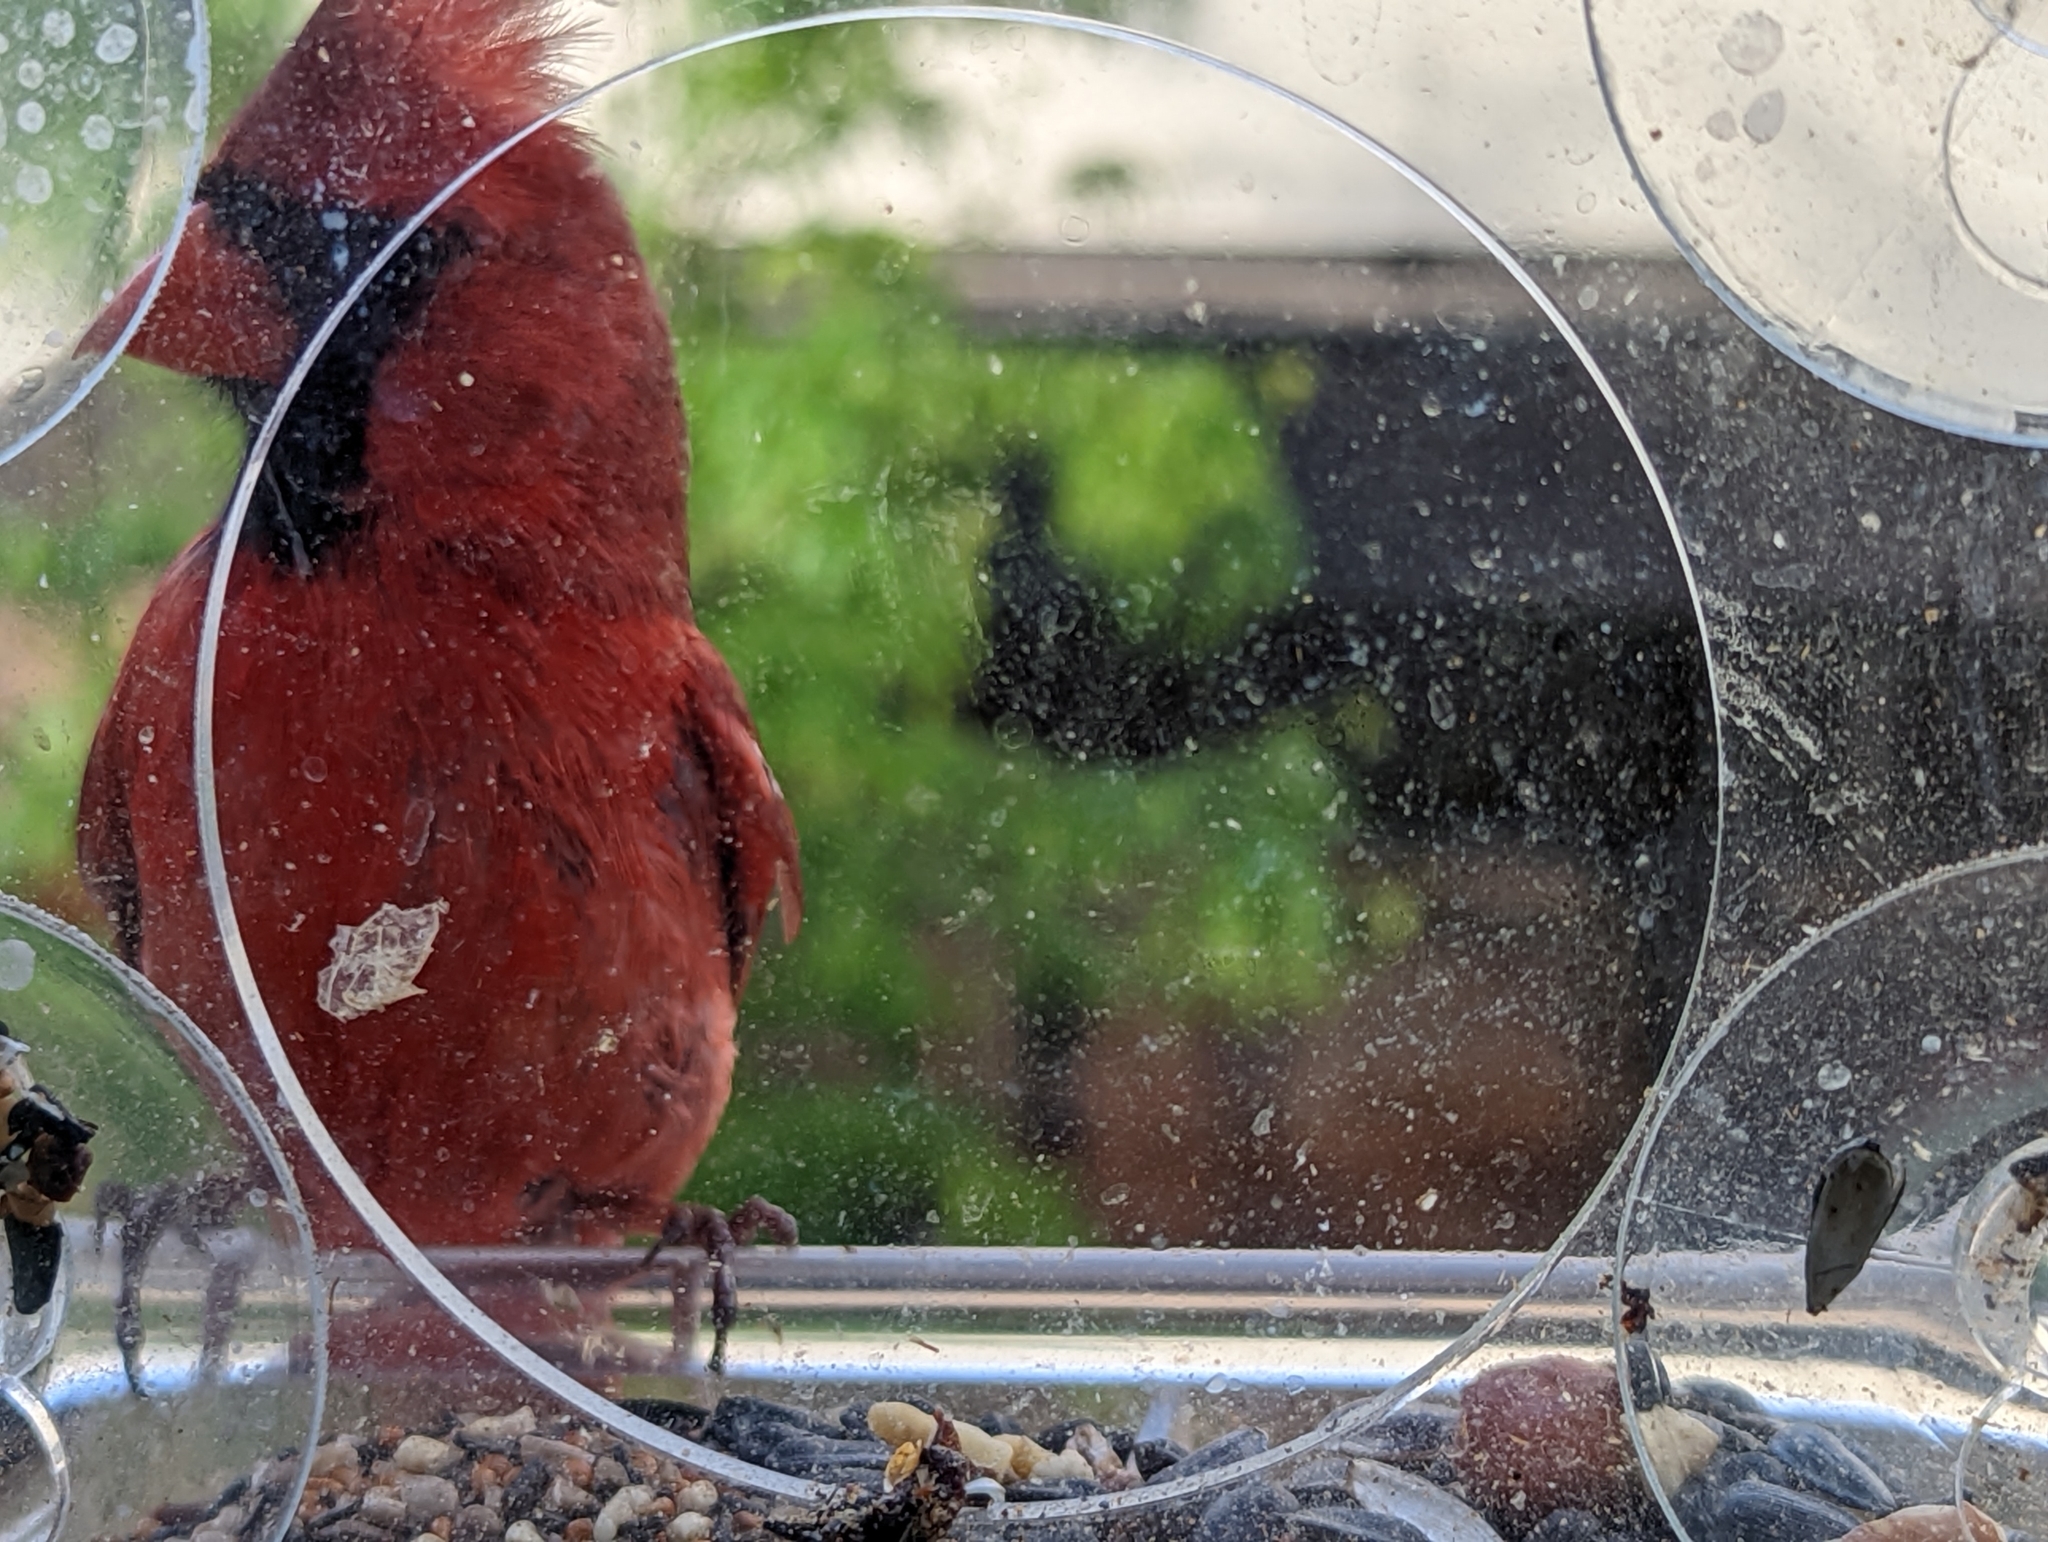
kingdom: Animalia
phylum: Chordata
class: Aves
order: Passeriformes
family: Cardinalidae
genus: Cardinalis
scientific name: Cardinalis cardinalis
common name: Northern cardinal
